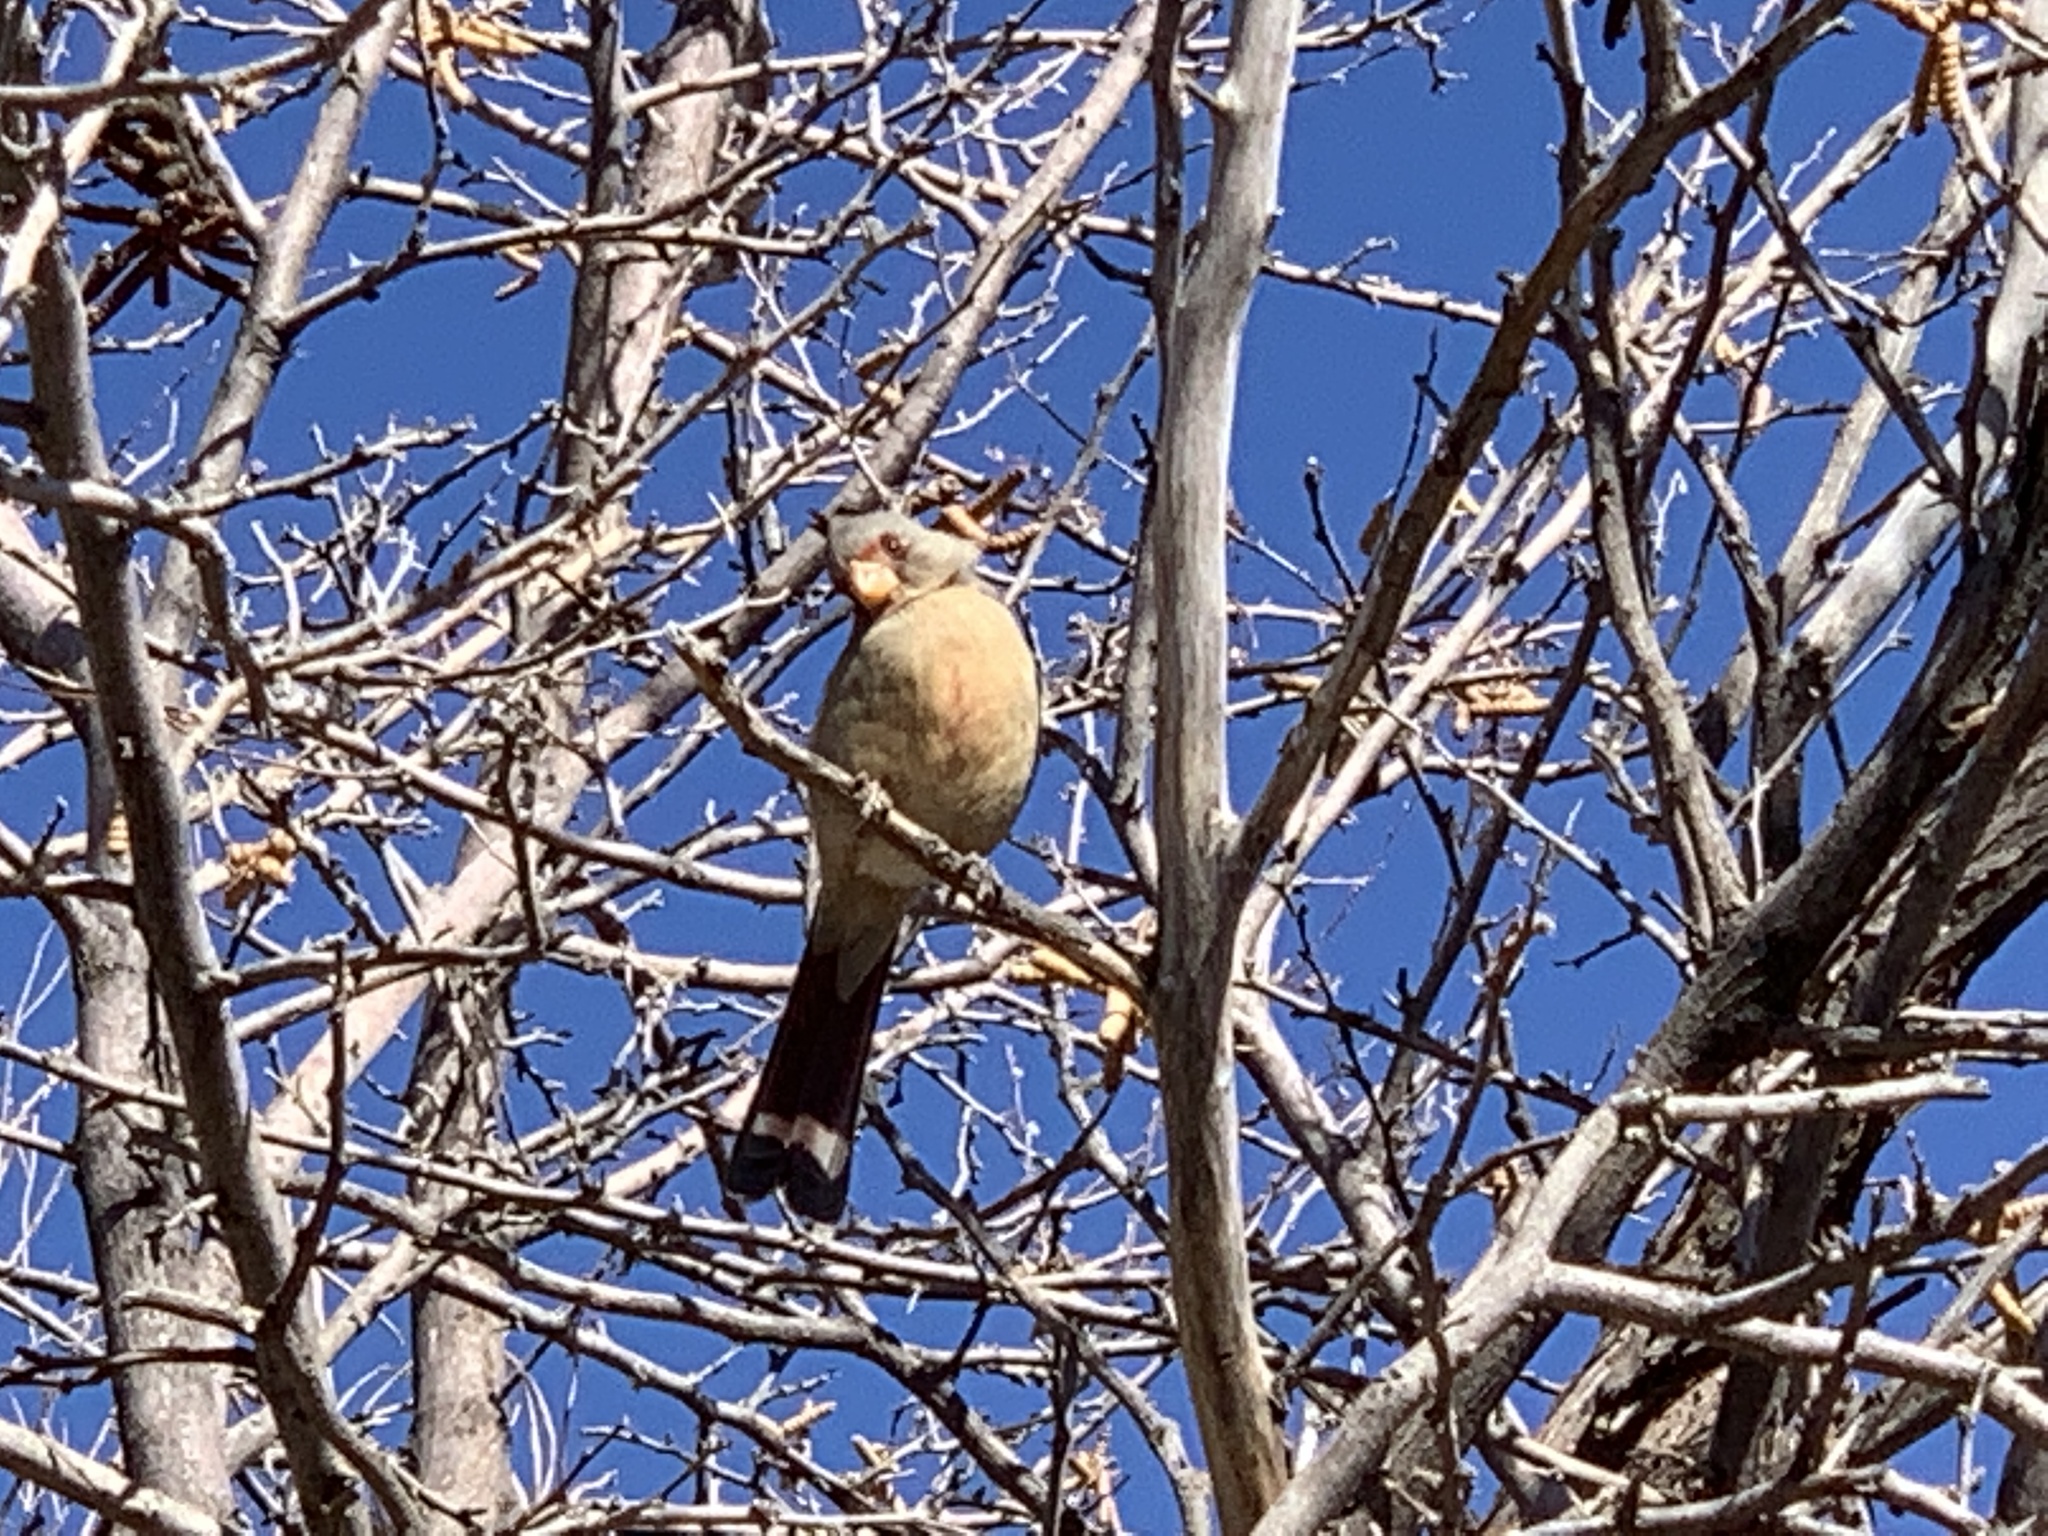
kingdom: Animalia
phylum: Chordata
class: Aves
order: Passeriformes
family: Cardinalidae
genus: Cardinalis
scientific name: Cardinalis sinuatus
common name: Pyrrhuloxia
